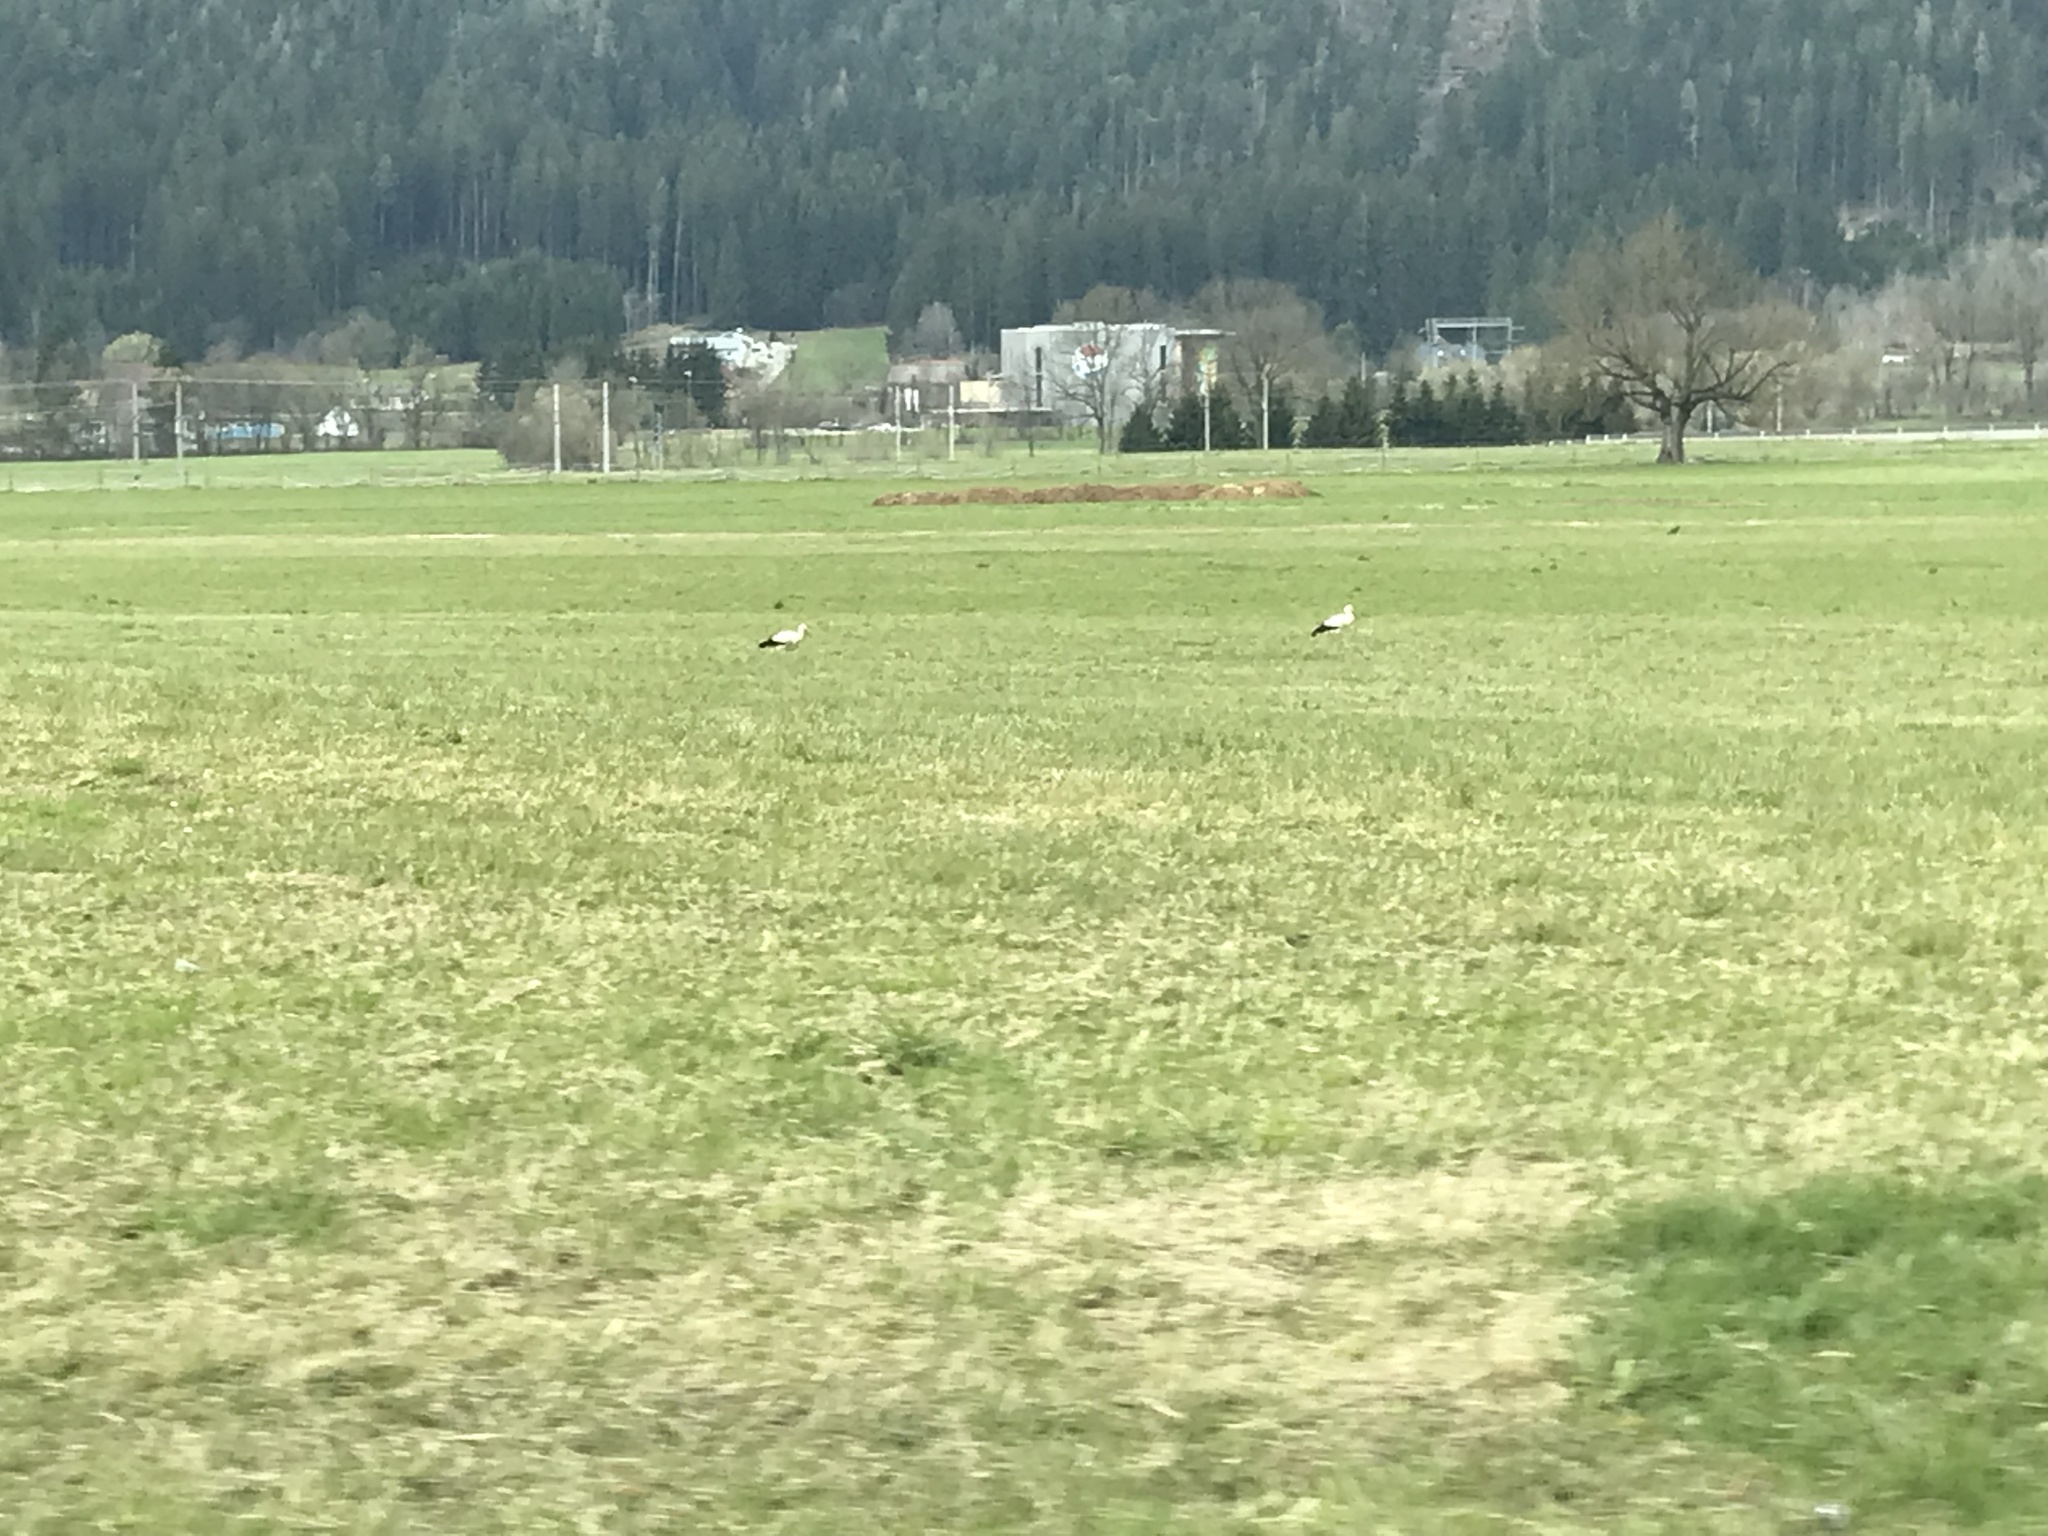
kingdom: Animalia
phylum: Chordata
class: Aves
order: Ciconiiformes
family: Ciconiidae
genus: Ciconia
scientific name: Ciconia ciconia
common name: White stork
